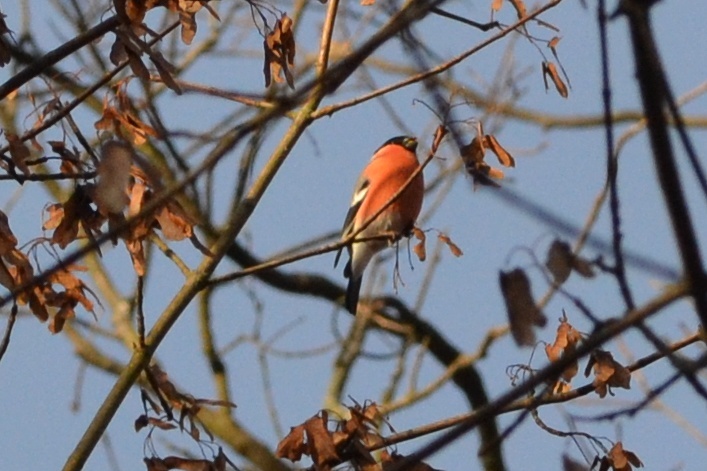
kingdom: Animalia
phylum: Chordata
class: Aves
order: Passeriformes
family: Fringillidae
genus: Pyrrhula
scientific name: Pyrrhula pyrrhula
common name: Eurasian bullfinch
